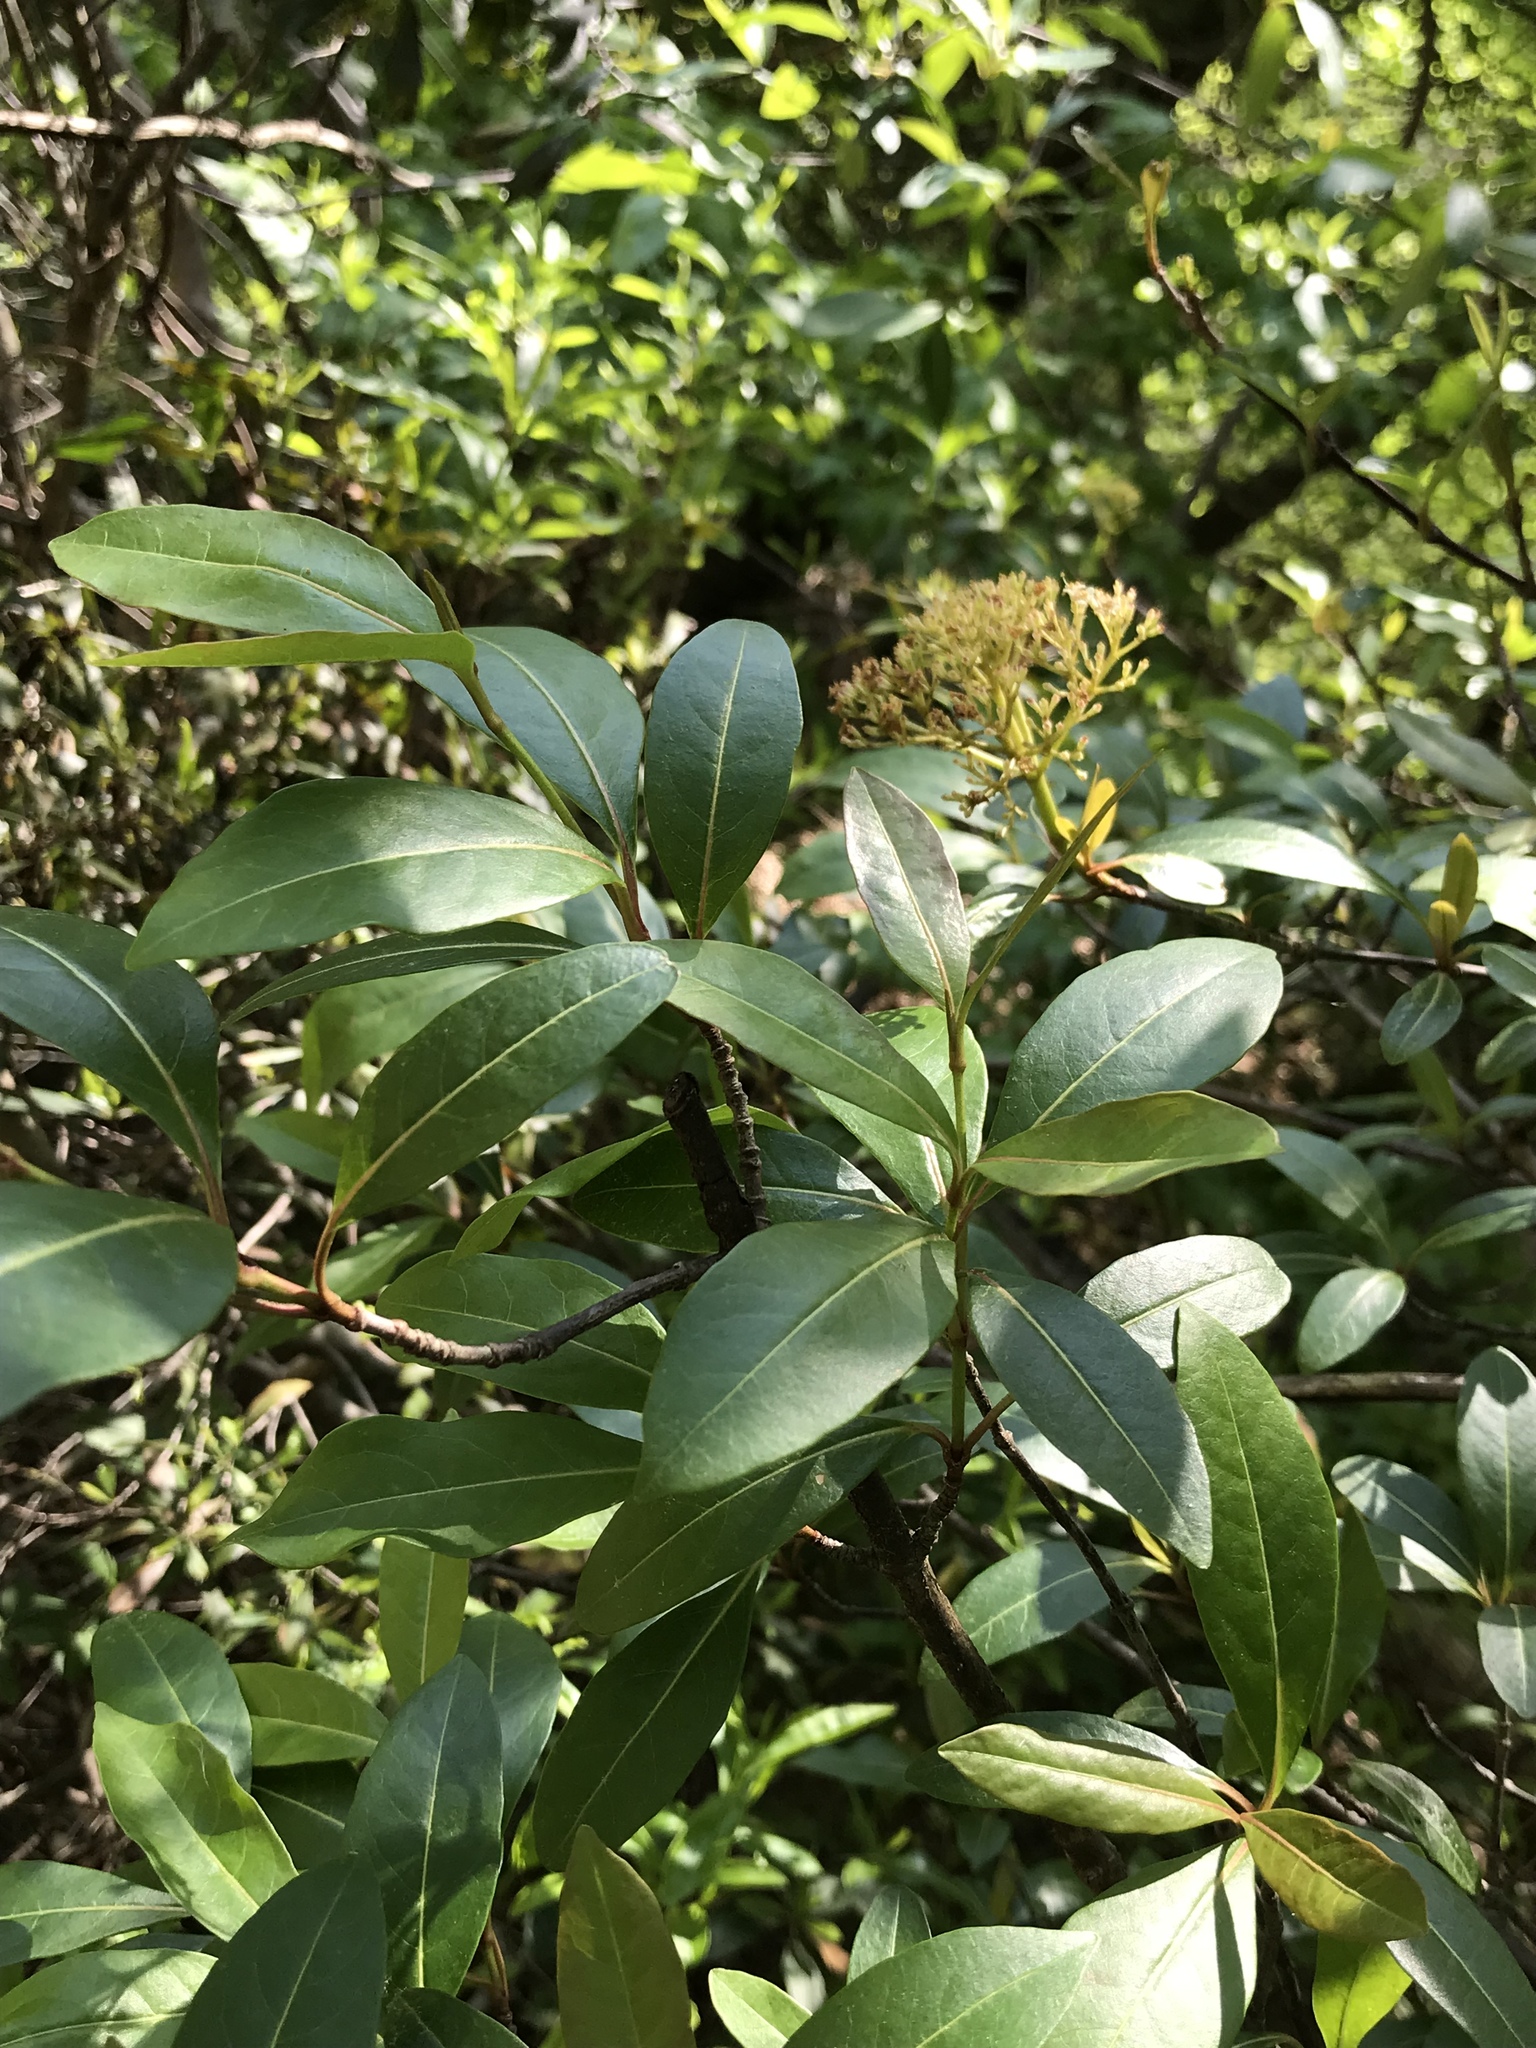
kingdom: Plantae
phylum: Tracheophyta
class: Magnoliopsida
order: Dipsacales
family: Viburnaceae
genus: Viburnum
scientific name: Viburnum cassinoides
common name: Swamp haw
